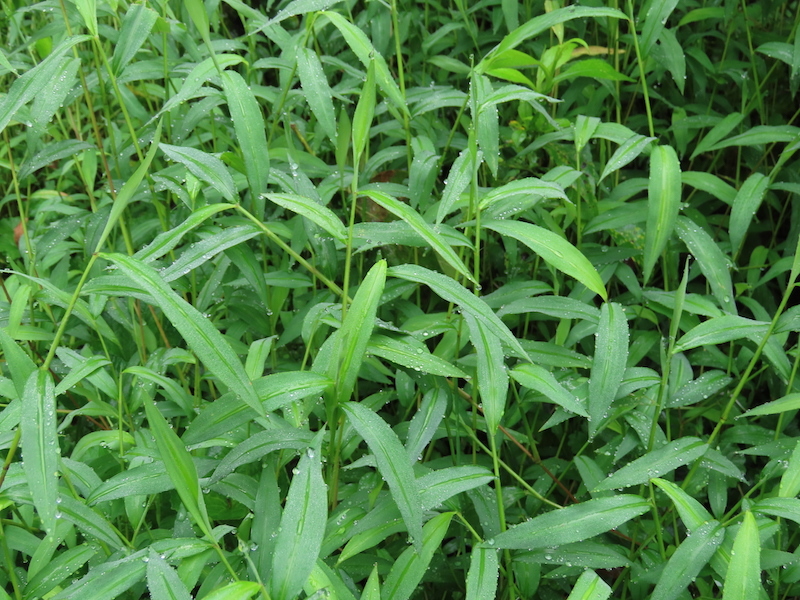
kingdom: Plantae
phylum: Tracheophyta
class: Liliopsida
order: Poales
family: Poaceae
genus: Microstegium
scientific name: Microstegium vimineum
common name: Japanese stiltgrass
